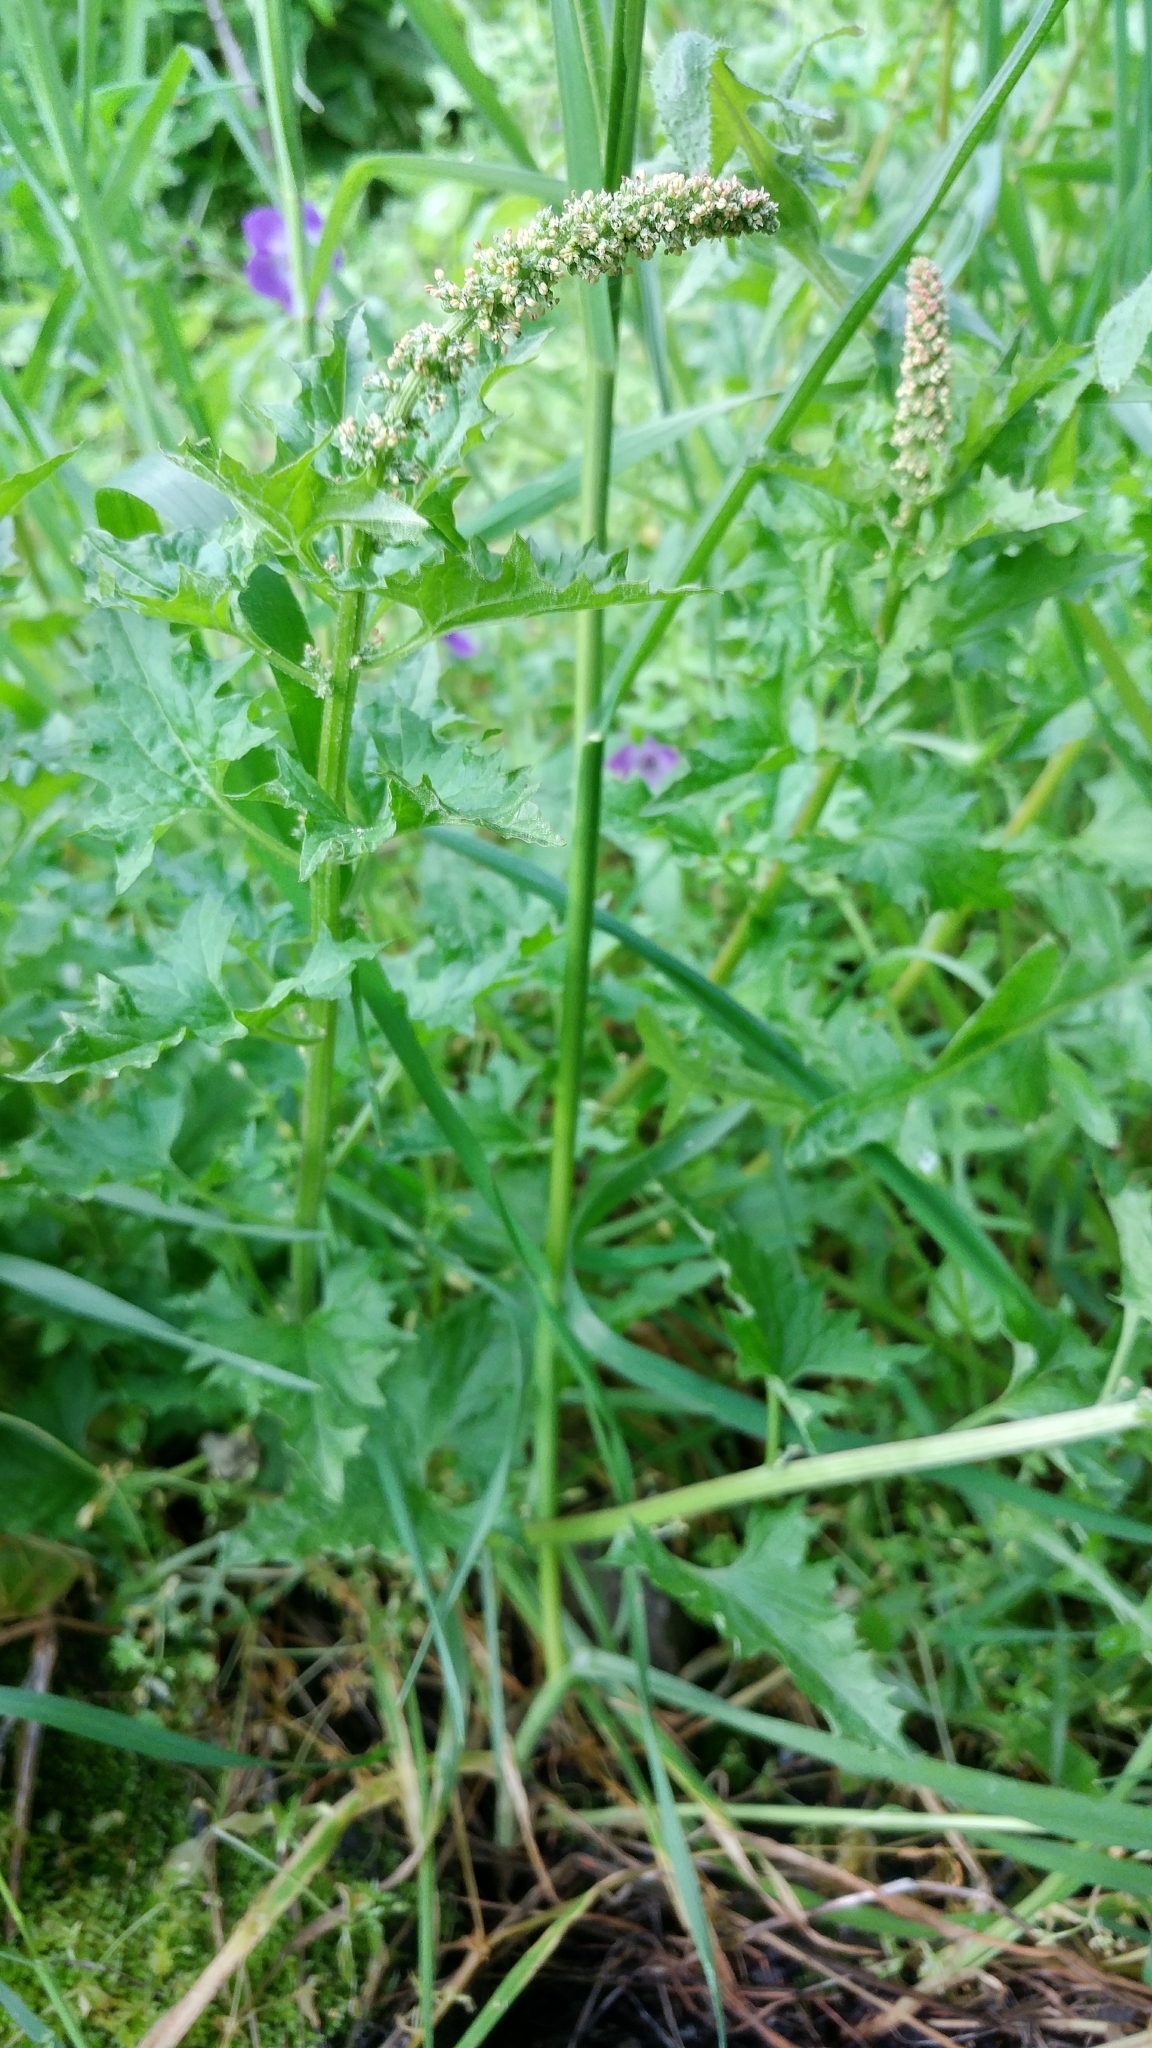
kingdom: Plantae
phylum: Tracheophyta
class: Magnoliopsida
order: Caryophyllales
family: Amaranthaceae
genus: Blitum
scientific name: Blitum californicum
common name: California goosefoot
